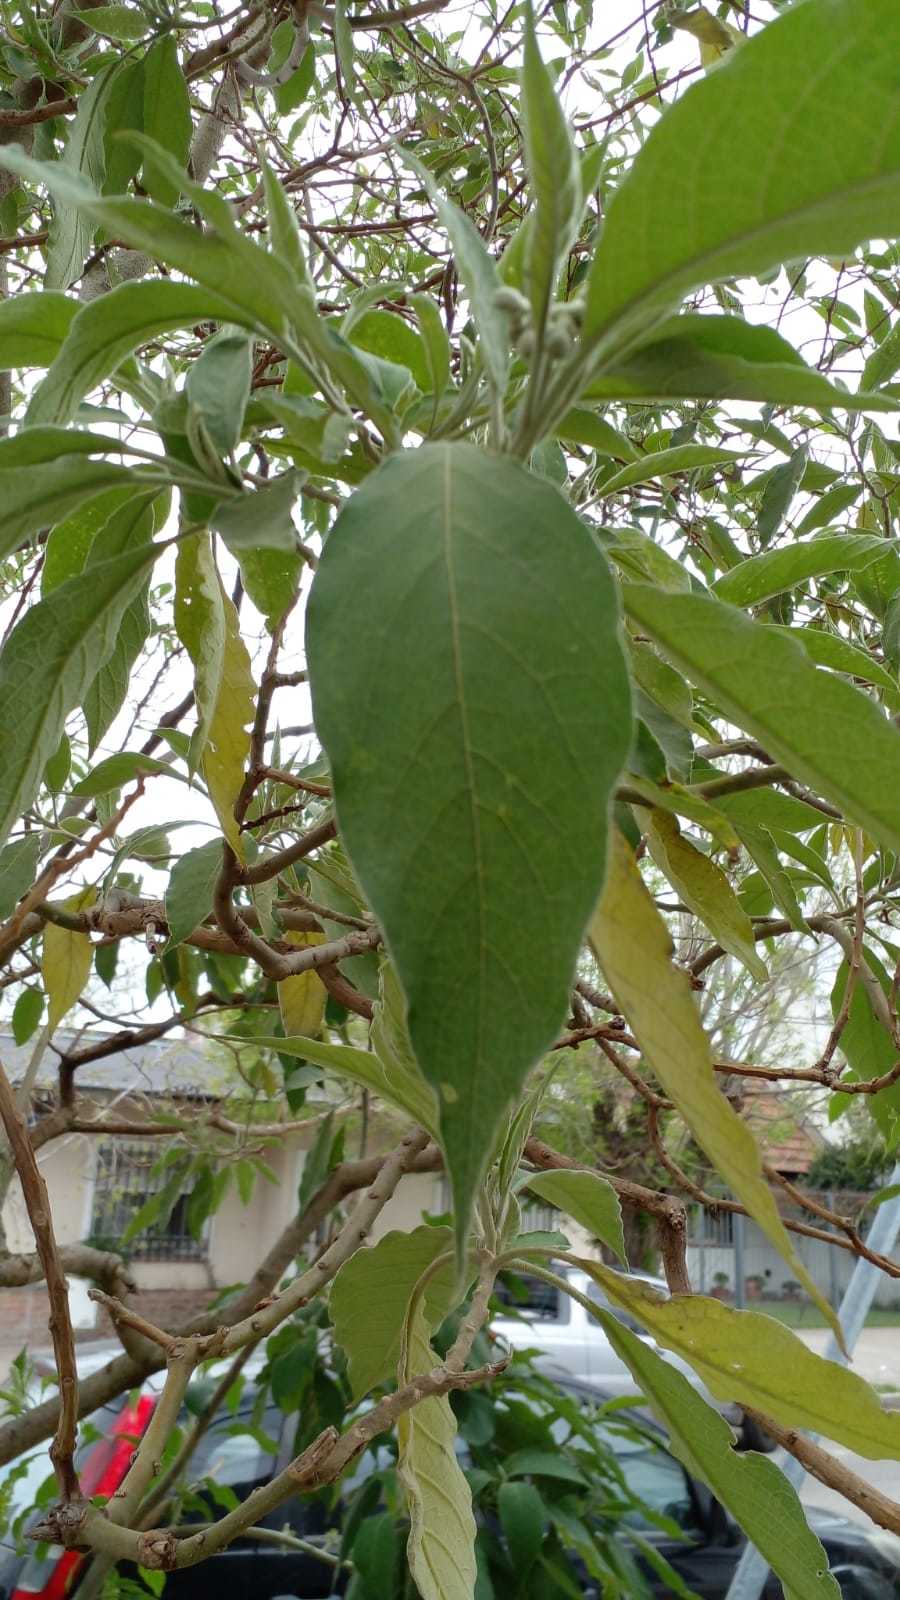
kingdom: Plantae
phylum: Tracheophyta
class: Magnoliopsida
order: Solanales
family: Solanaceae
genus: Solanum
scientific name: Solanum granulosoleprosum
